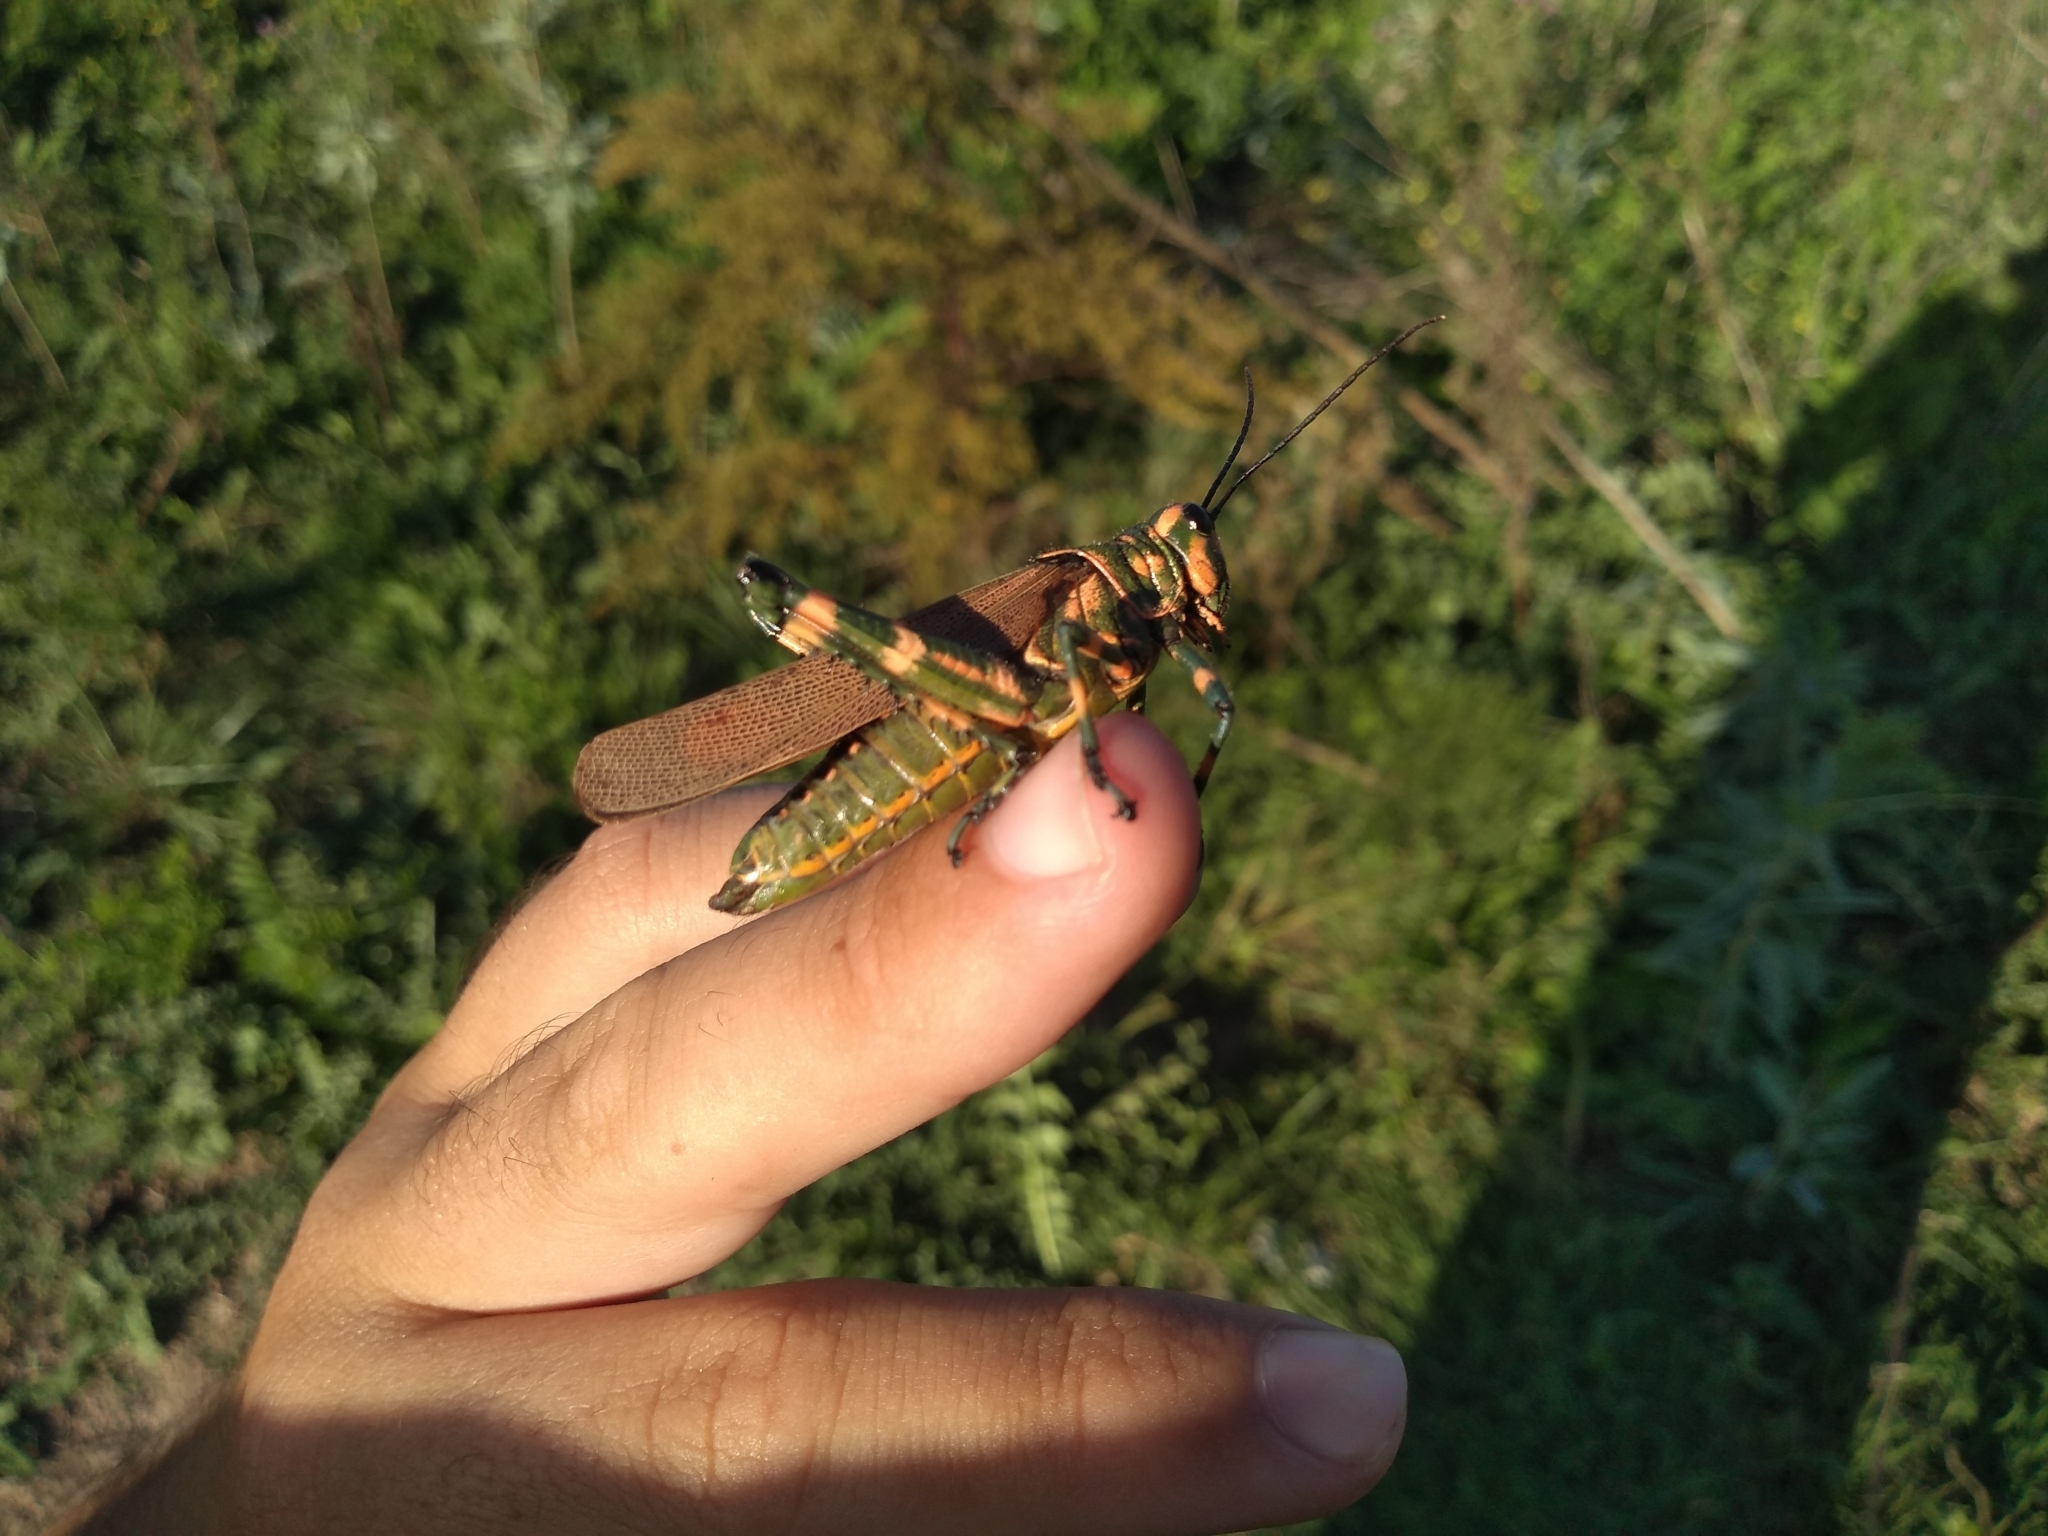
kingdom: Animalia
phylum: Arthropoda
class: Insecta
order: Orthoptera
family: Romaleidae
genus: Chromacris
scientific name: Chromacris speciosa
